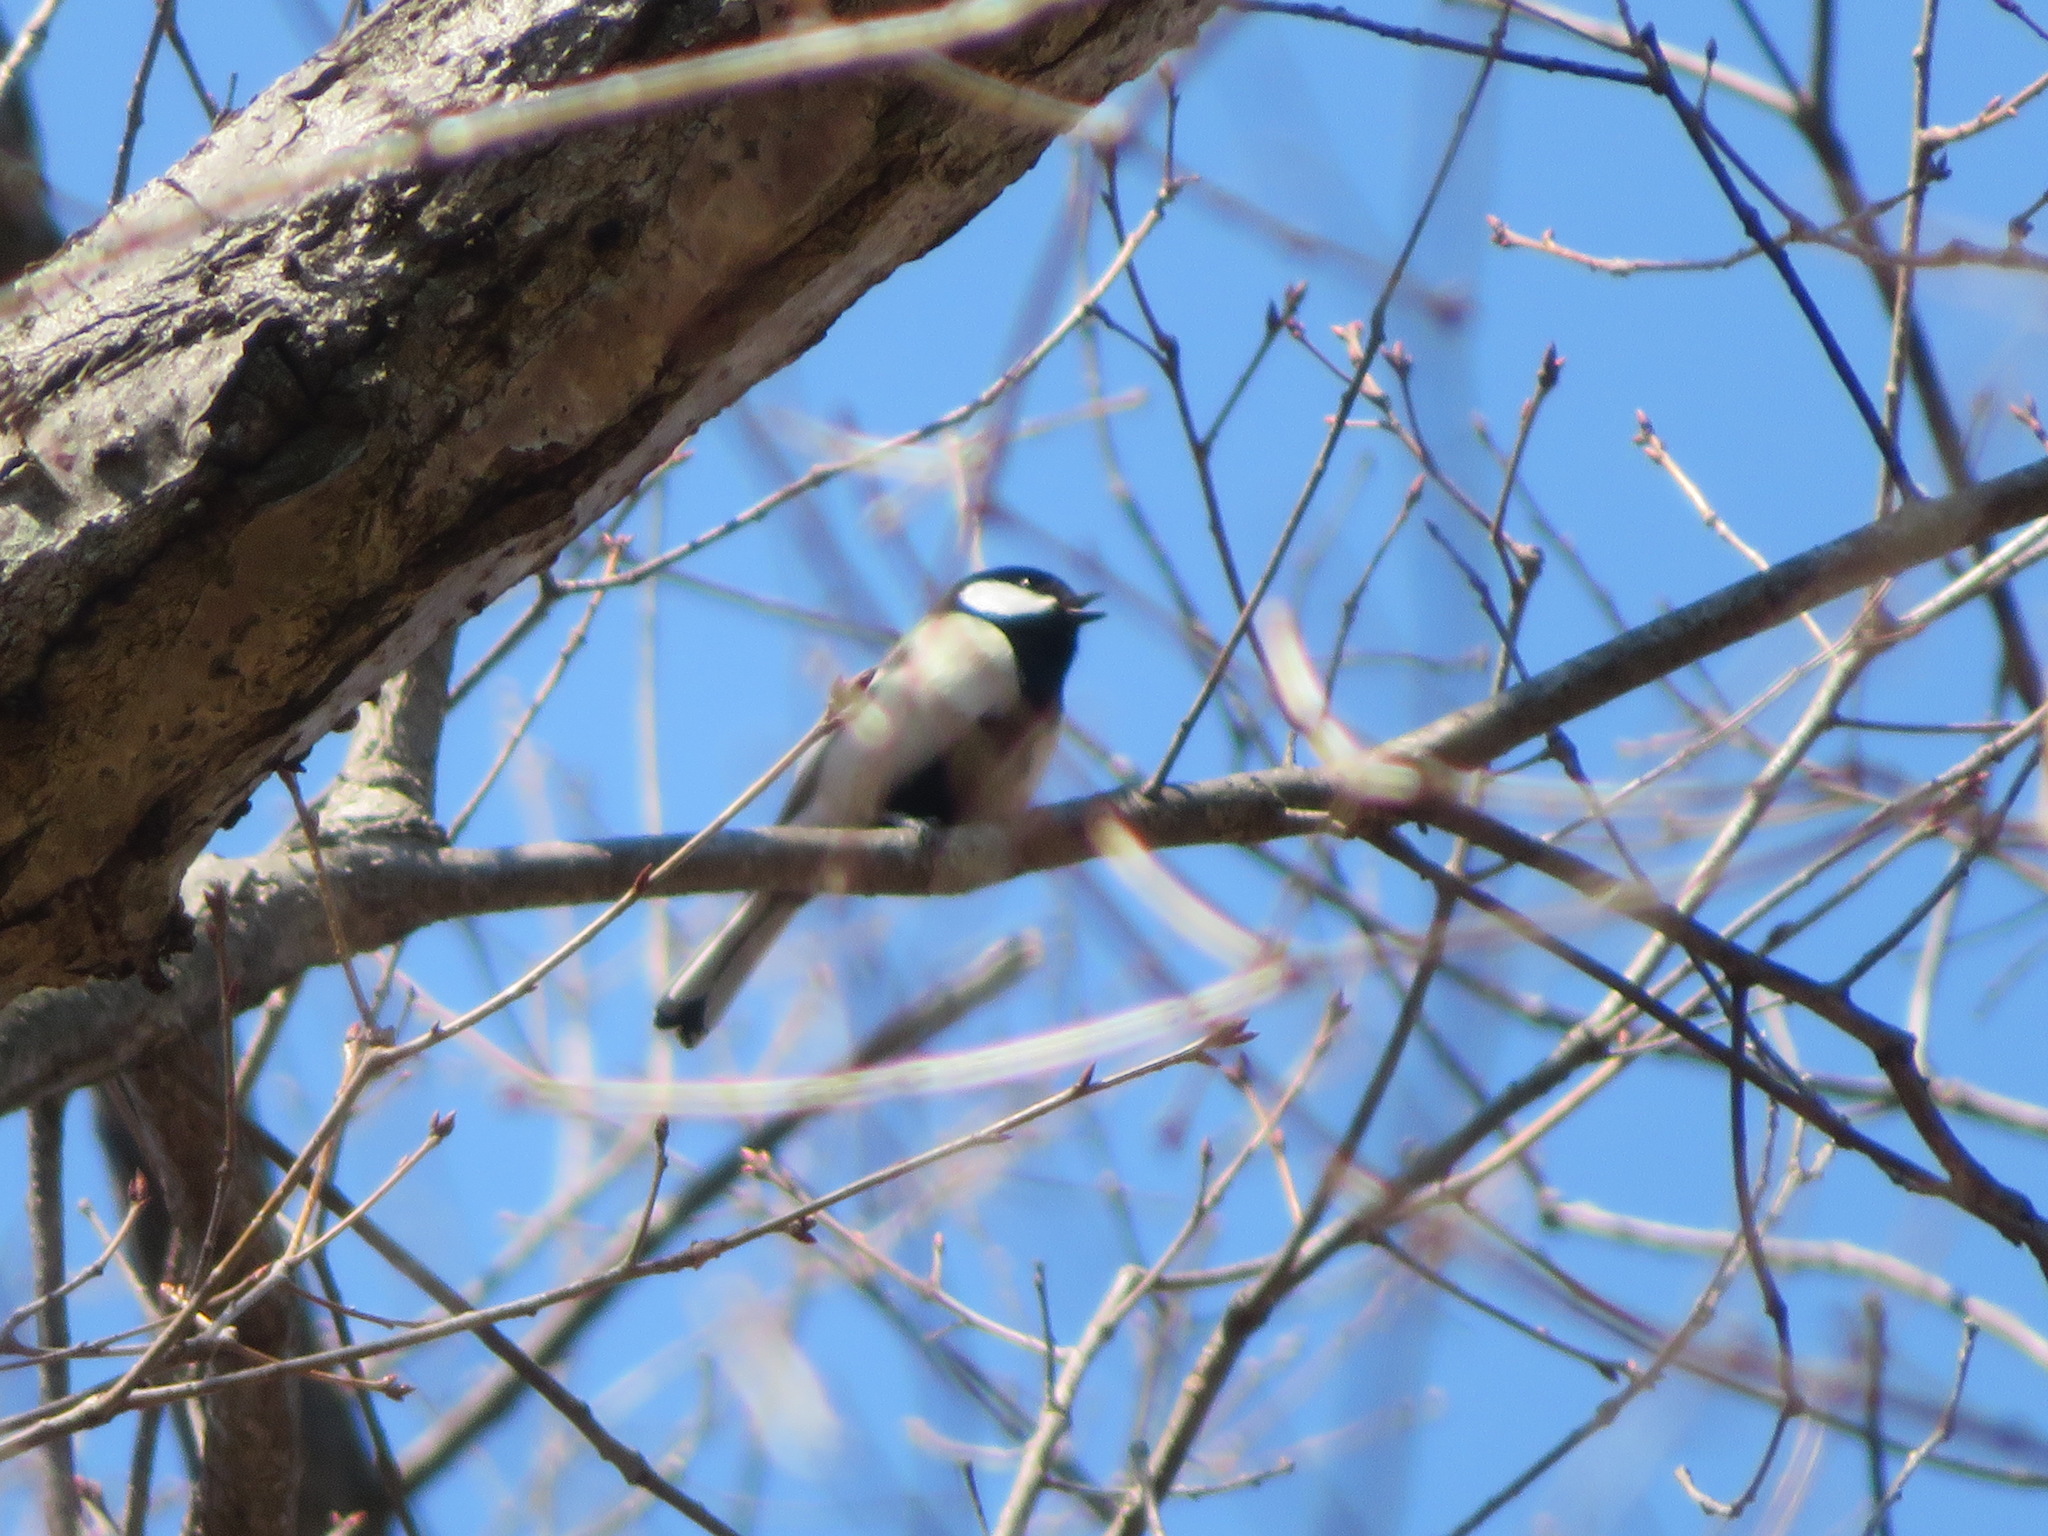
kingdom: Animalia
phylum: Chordata
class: Aves
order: Passeriformes
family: Paridae
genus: Parus
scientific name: Parus minor
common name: Japanese tit
